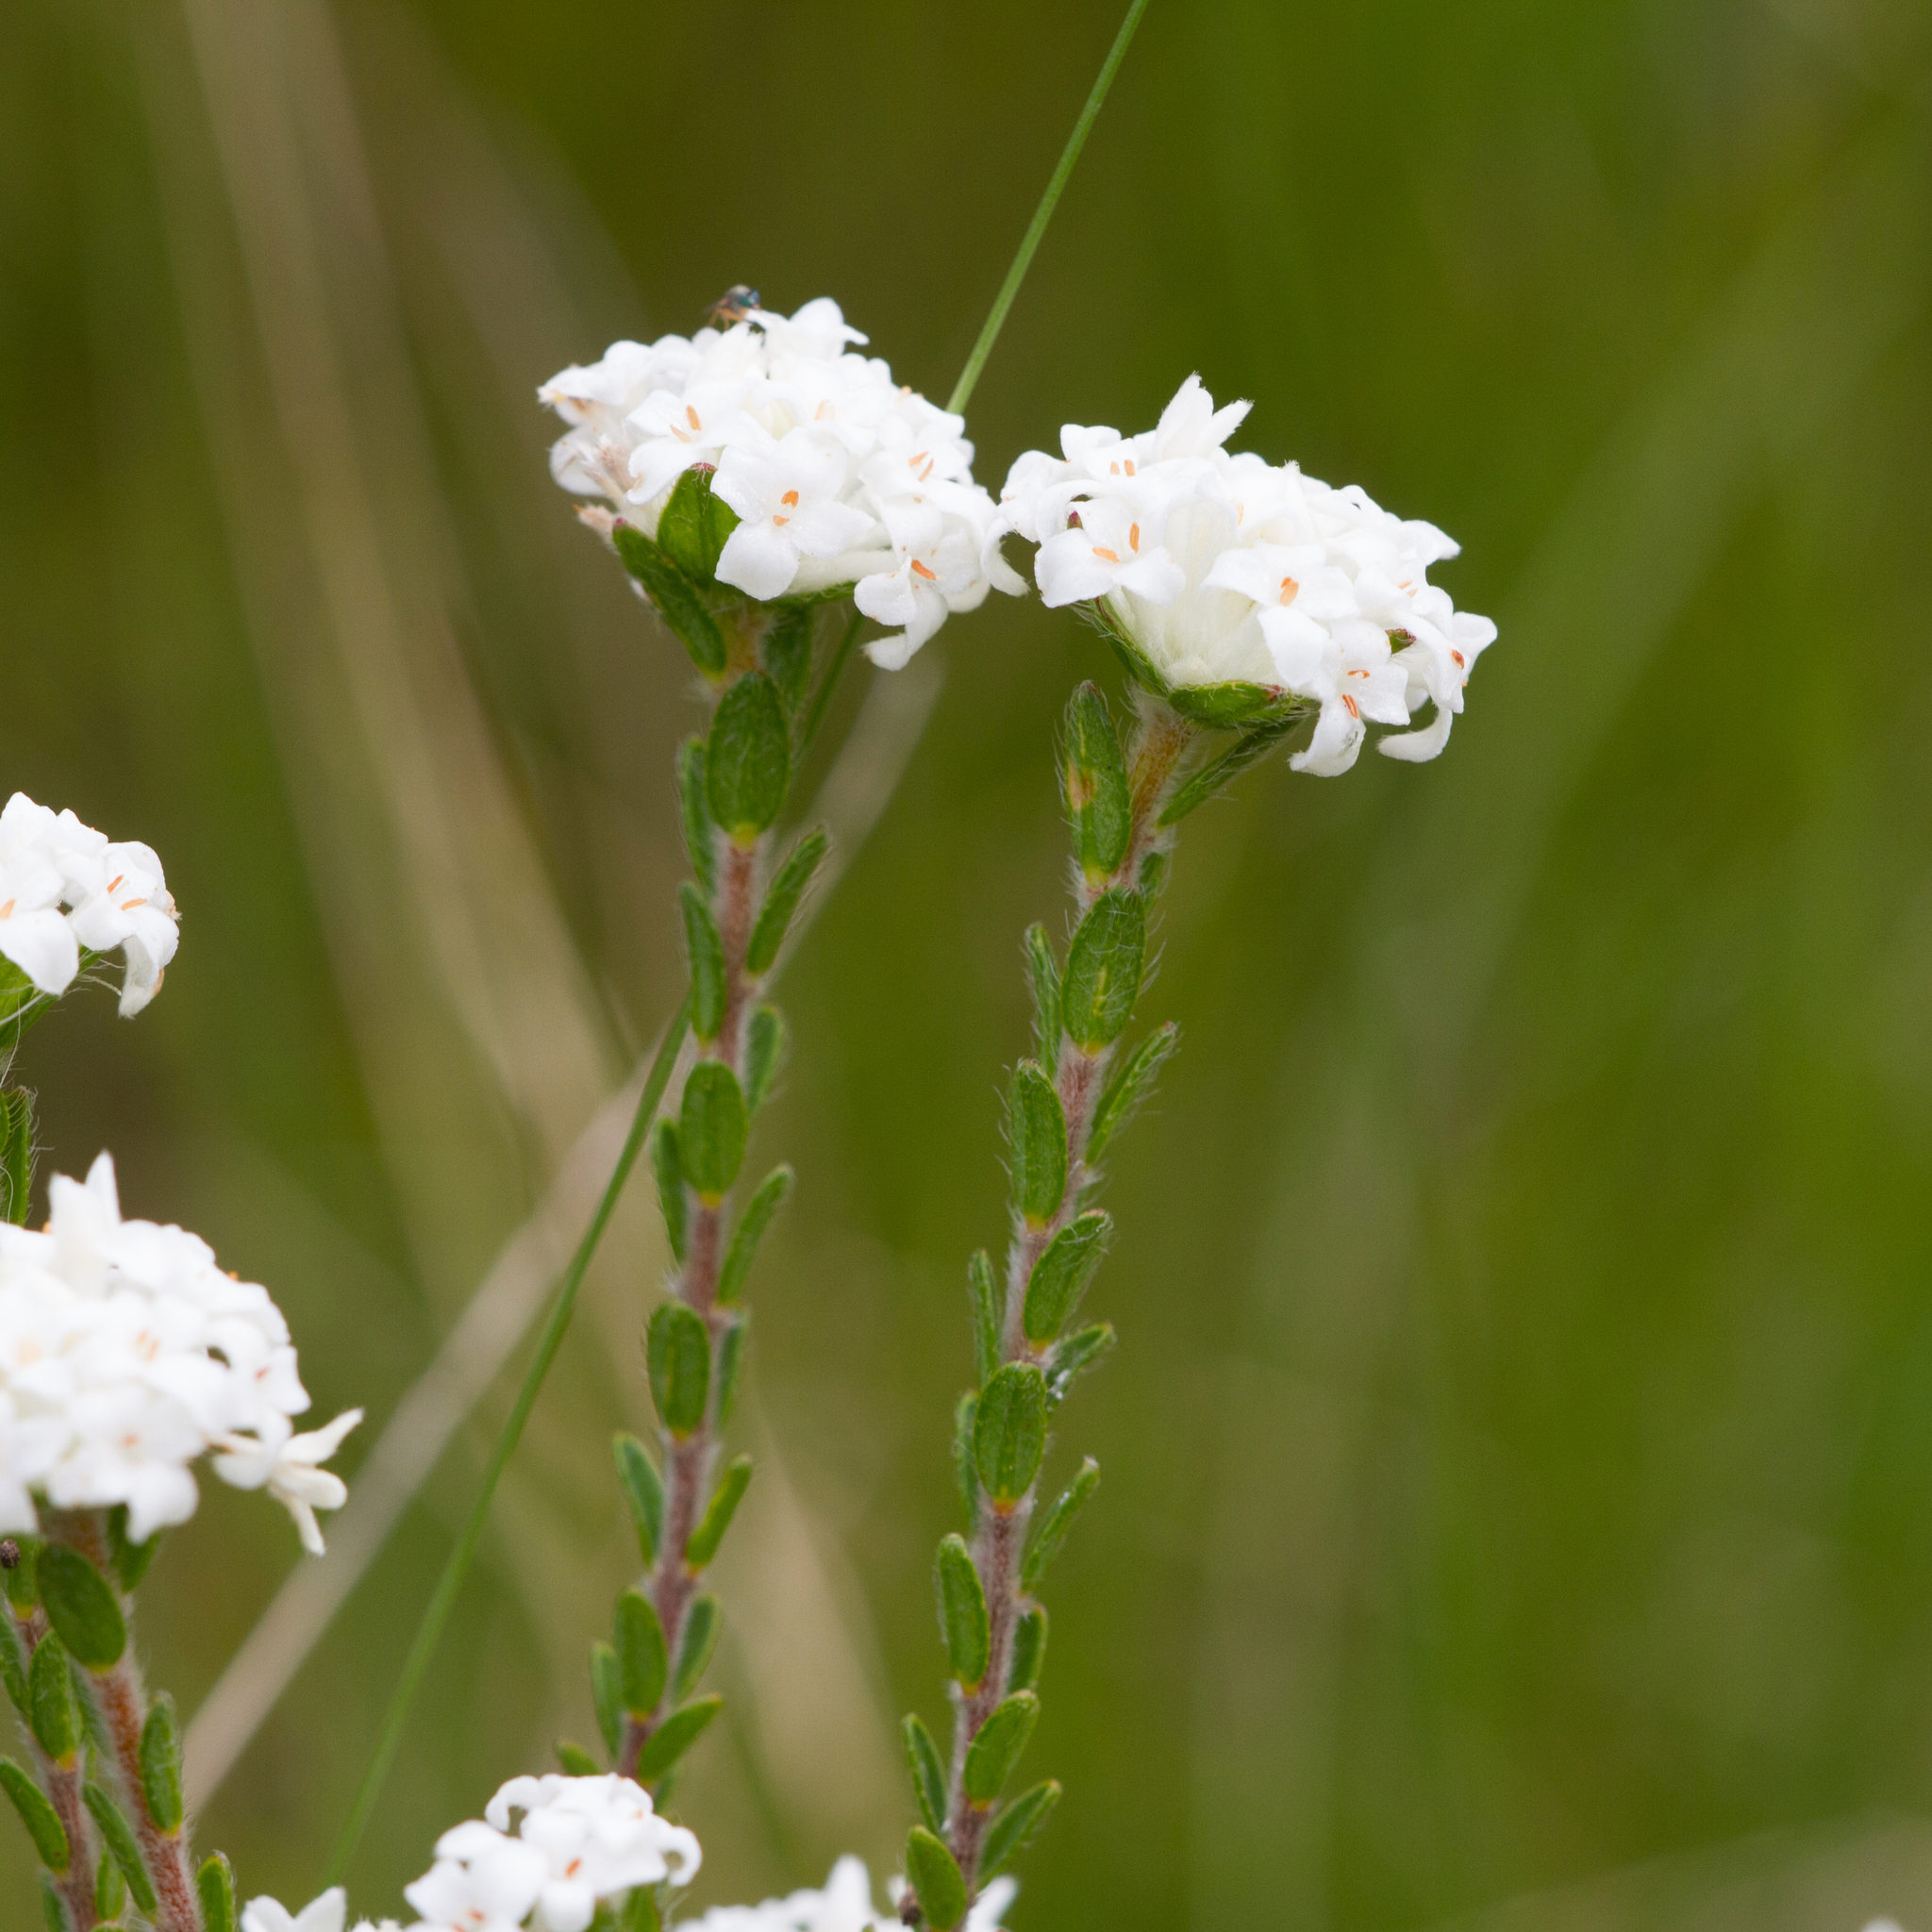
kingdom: Plantae
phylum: Tracheophyta
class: Magnoliopsida
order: Malvales
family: Thymelaeaceae
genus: Pimelea
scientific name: Pimelea phylicoides
